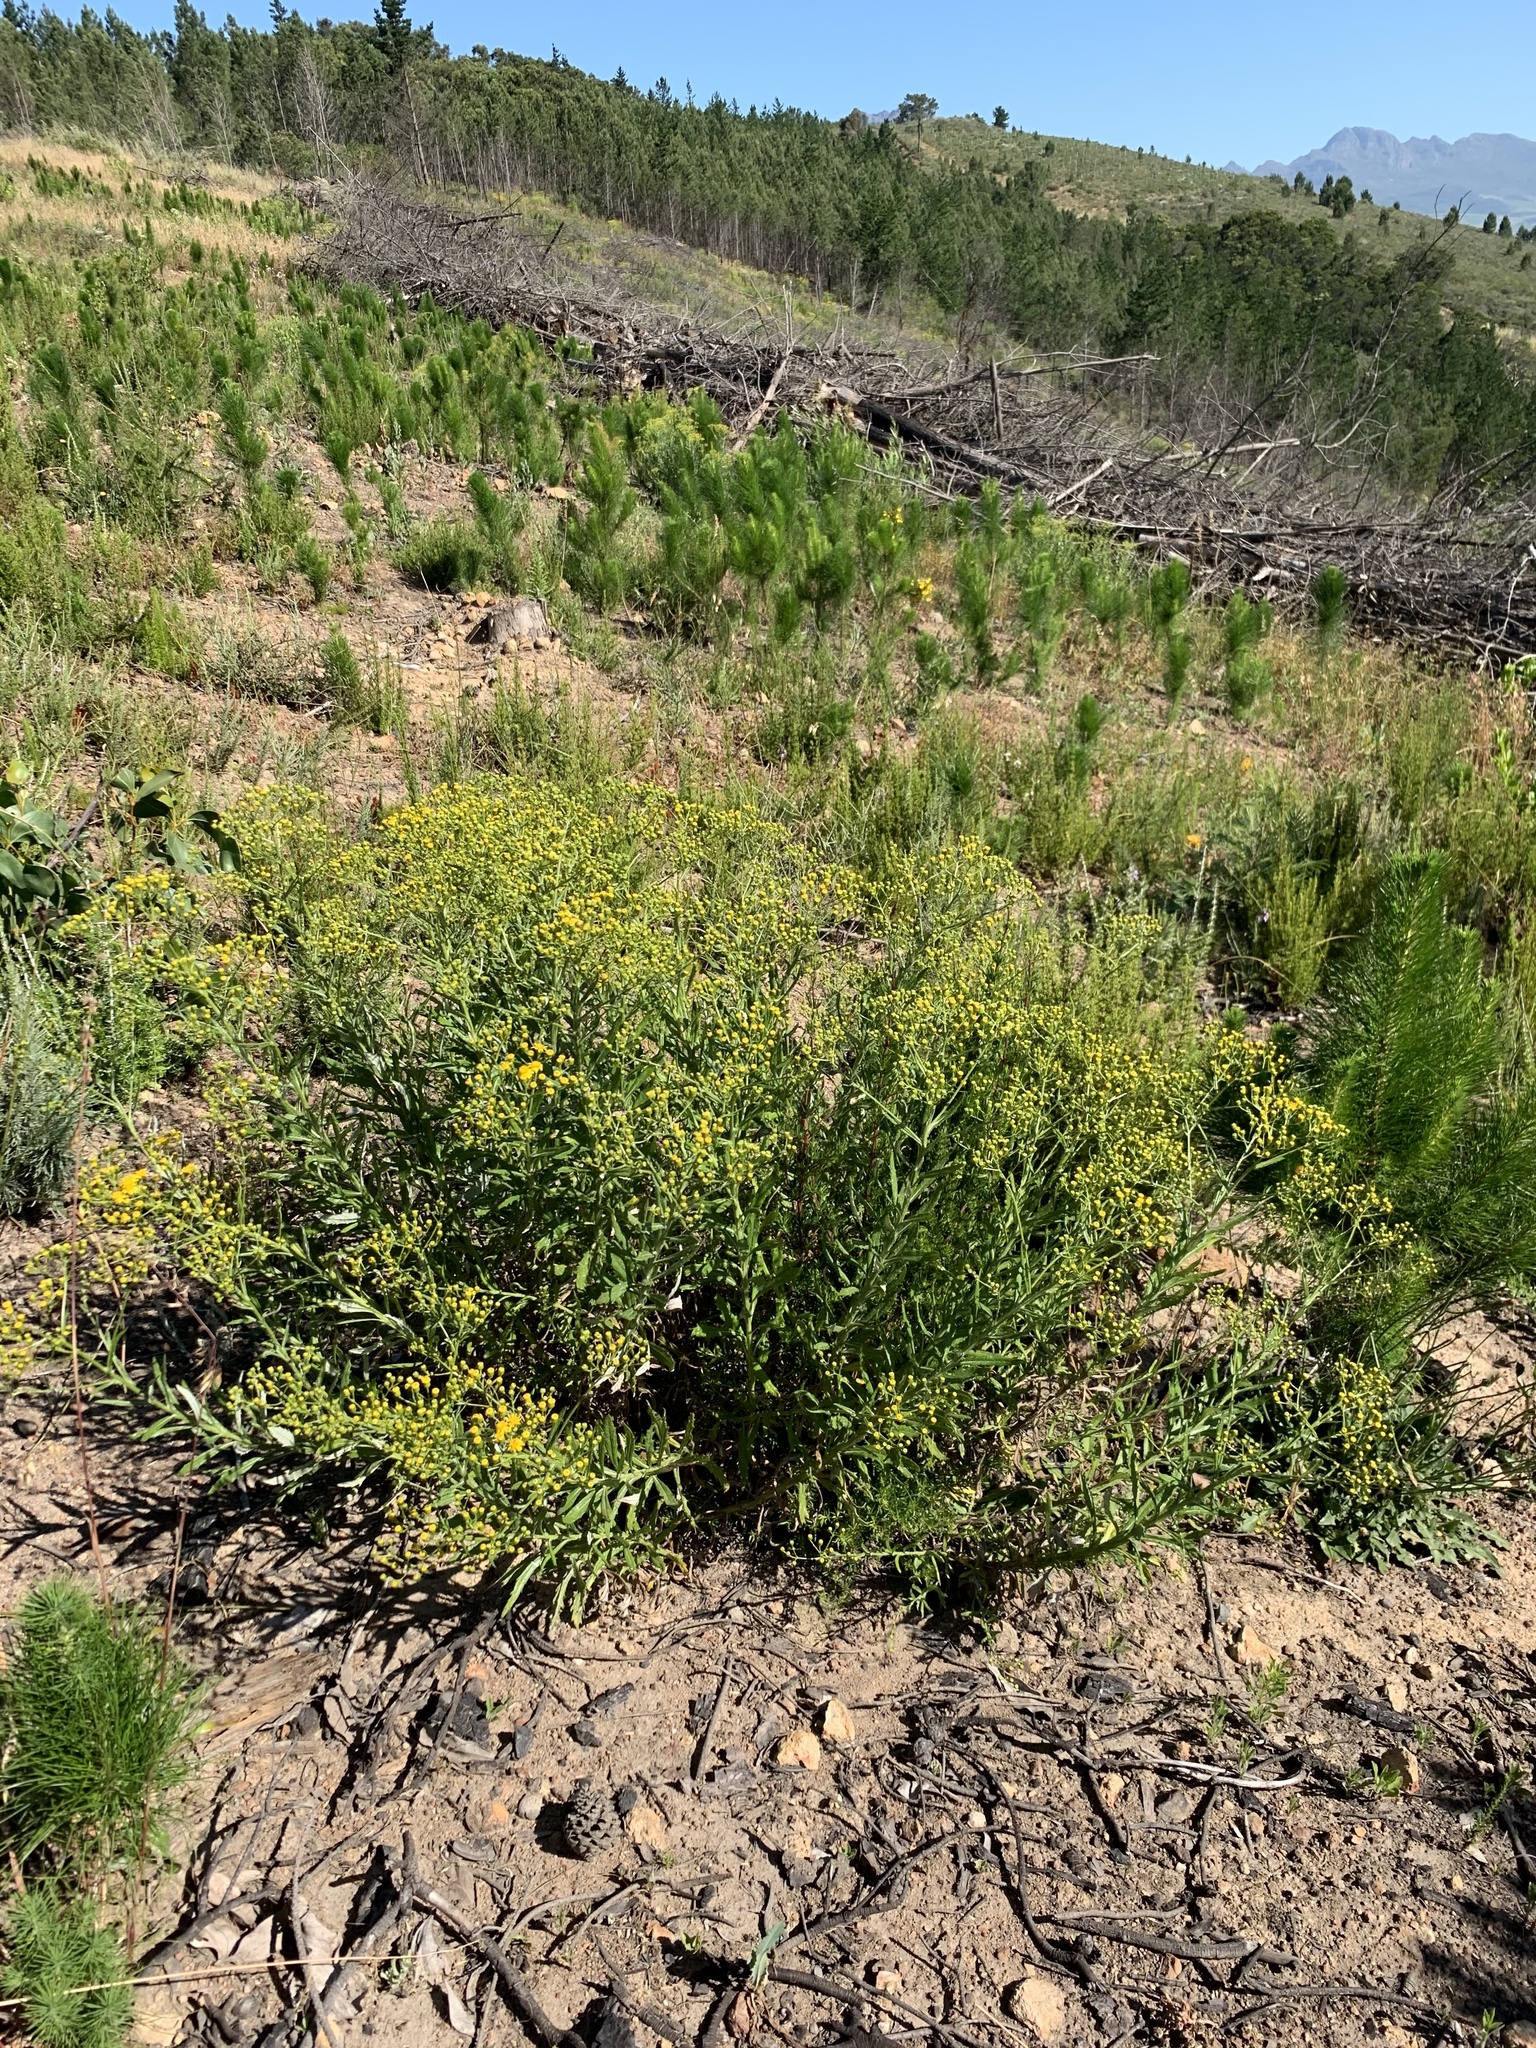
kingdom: Plantae
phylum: Tracheophyta
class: Magnoliopsida
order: Asterales
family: Asteraceae
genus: Senecio
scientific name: Senecio pterophorus
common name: Shoddy ragwort
